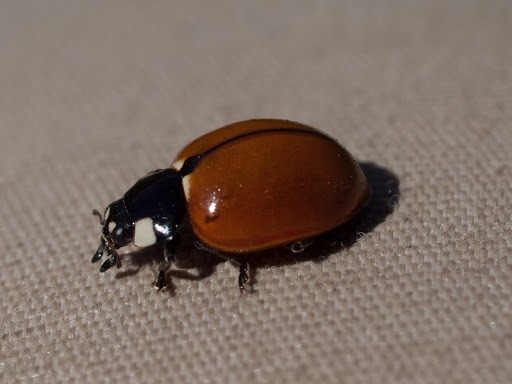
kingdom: Animalia
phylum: Arthropoda
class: Insecta
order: Coleoptera
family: Coccinellidae
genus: Coccinella
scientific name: Coccinella californica
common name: Lady beetle
